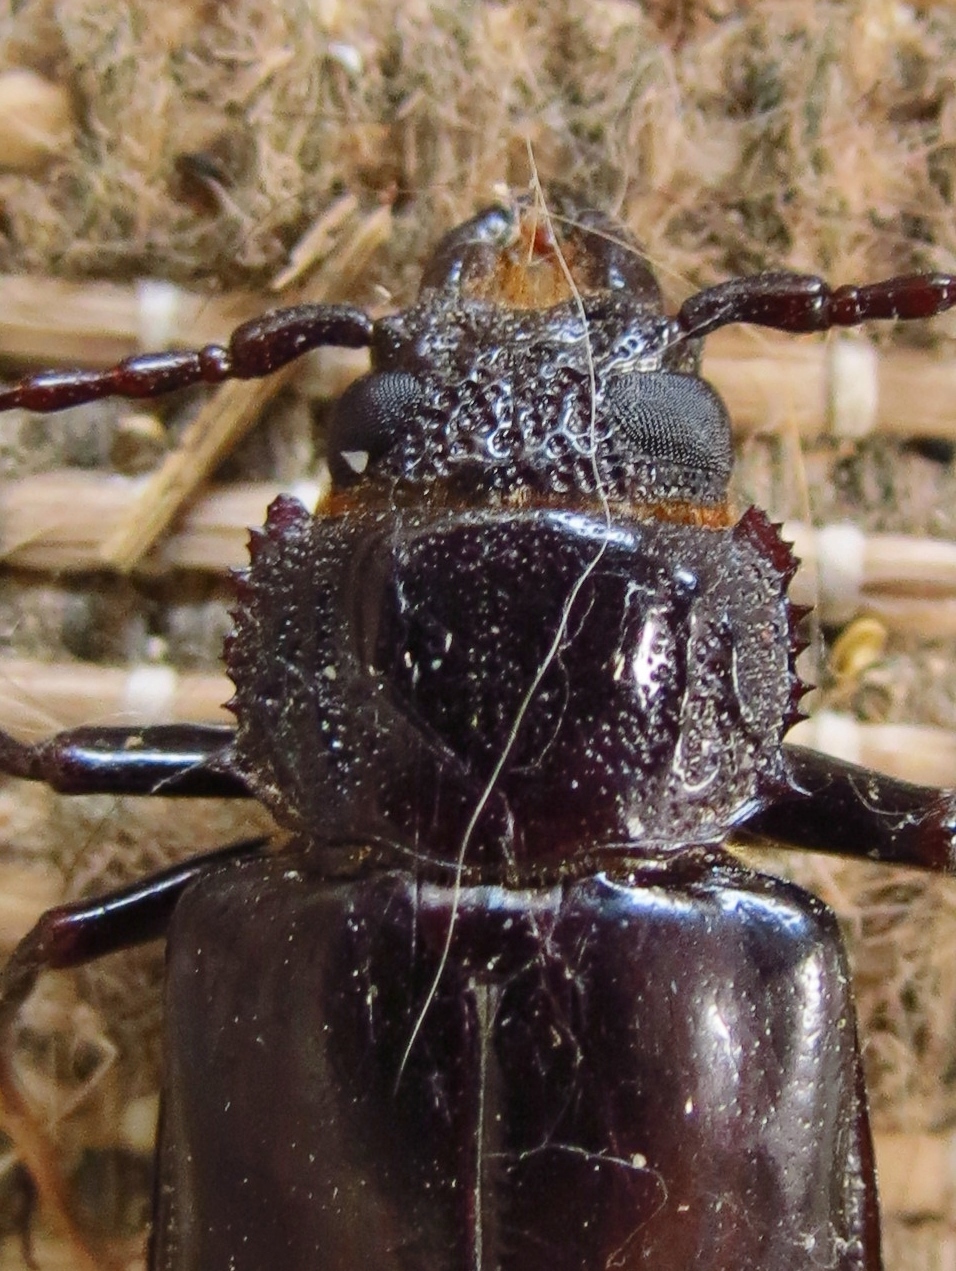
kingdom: Animalia
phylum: Arthropoda
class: Insecta
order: Coleoptera
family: Cerambycidae
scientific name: Cerambycidae
